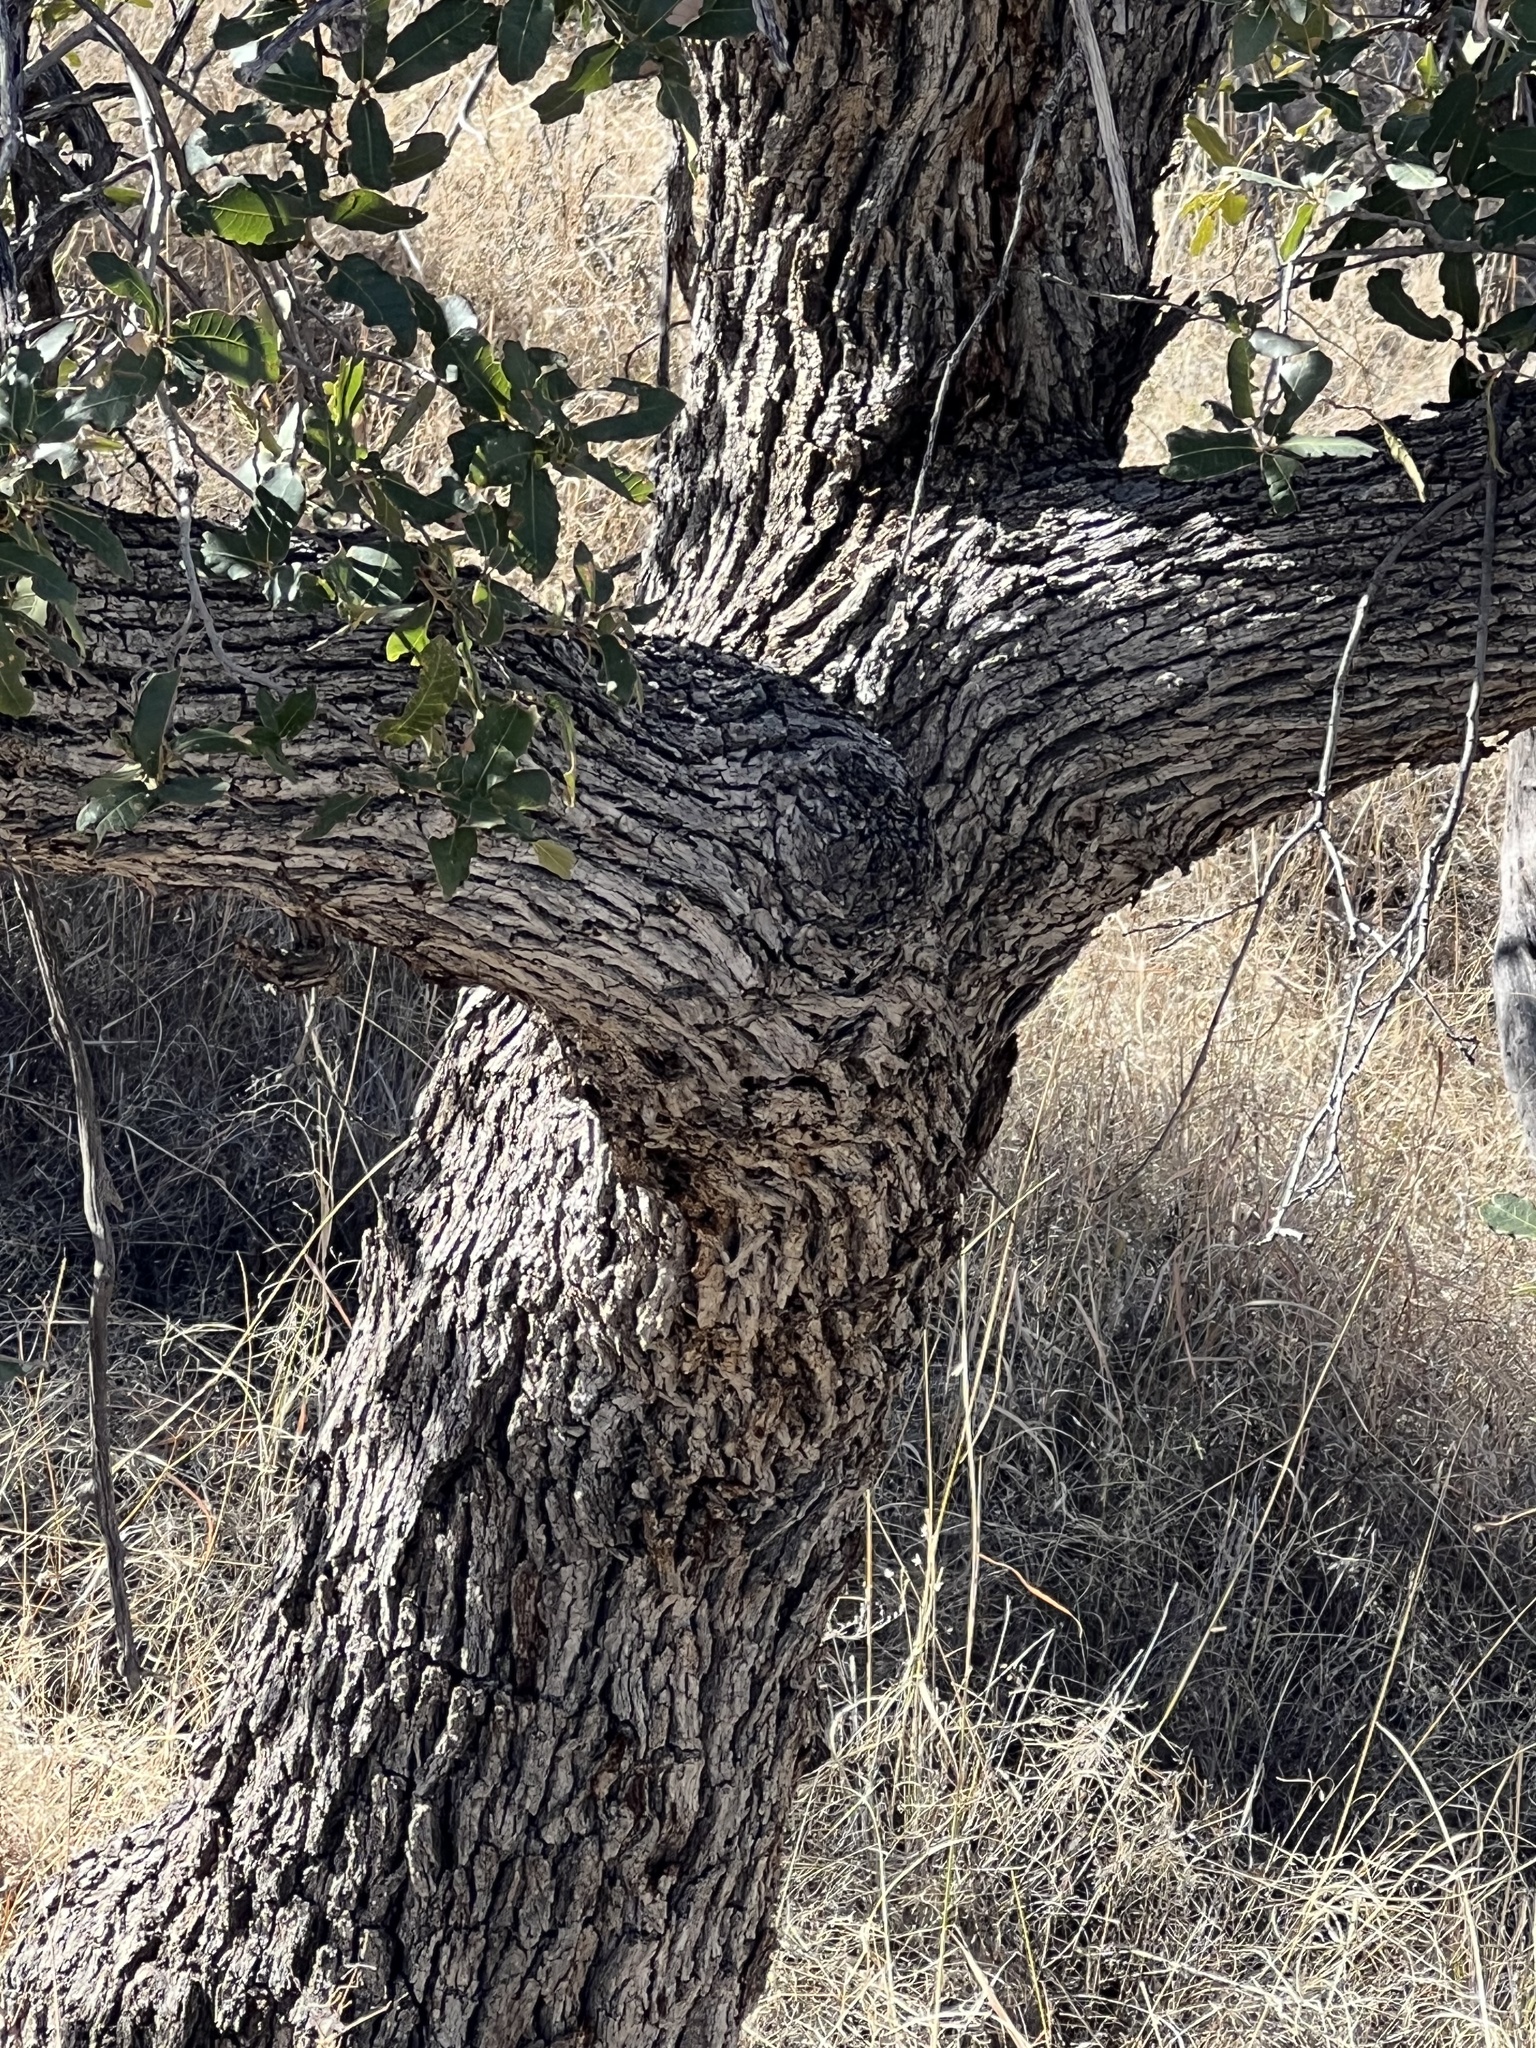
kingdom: Plantae
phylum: Tracheophyta
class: Magnoliopsida
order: Fagales
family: Fagaceae
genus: Quercus
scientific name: Quercus arizonica
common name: Arizona white oak
